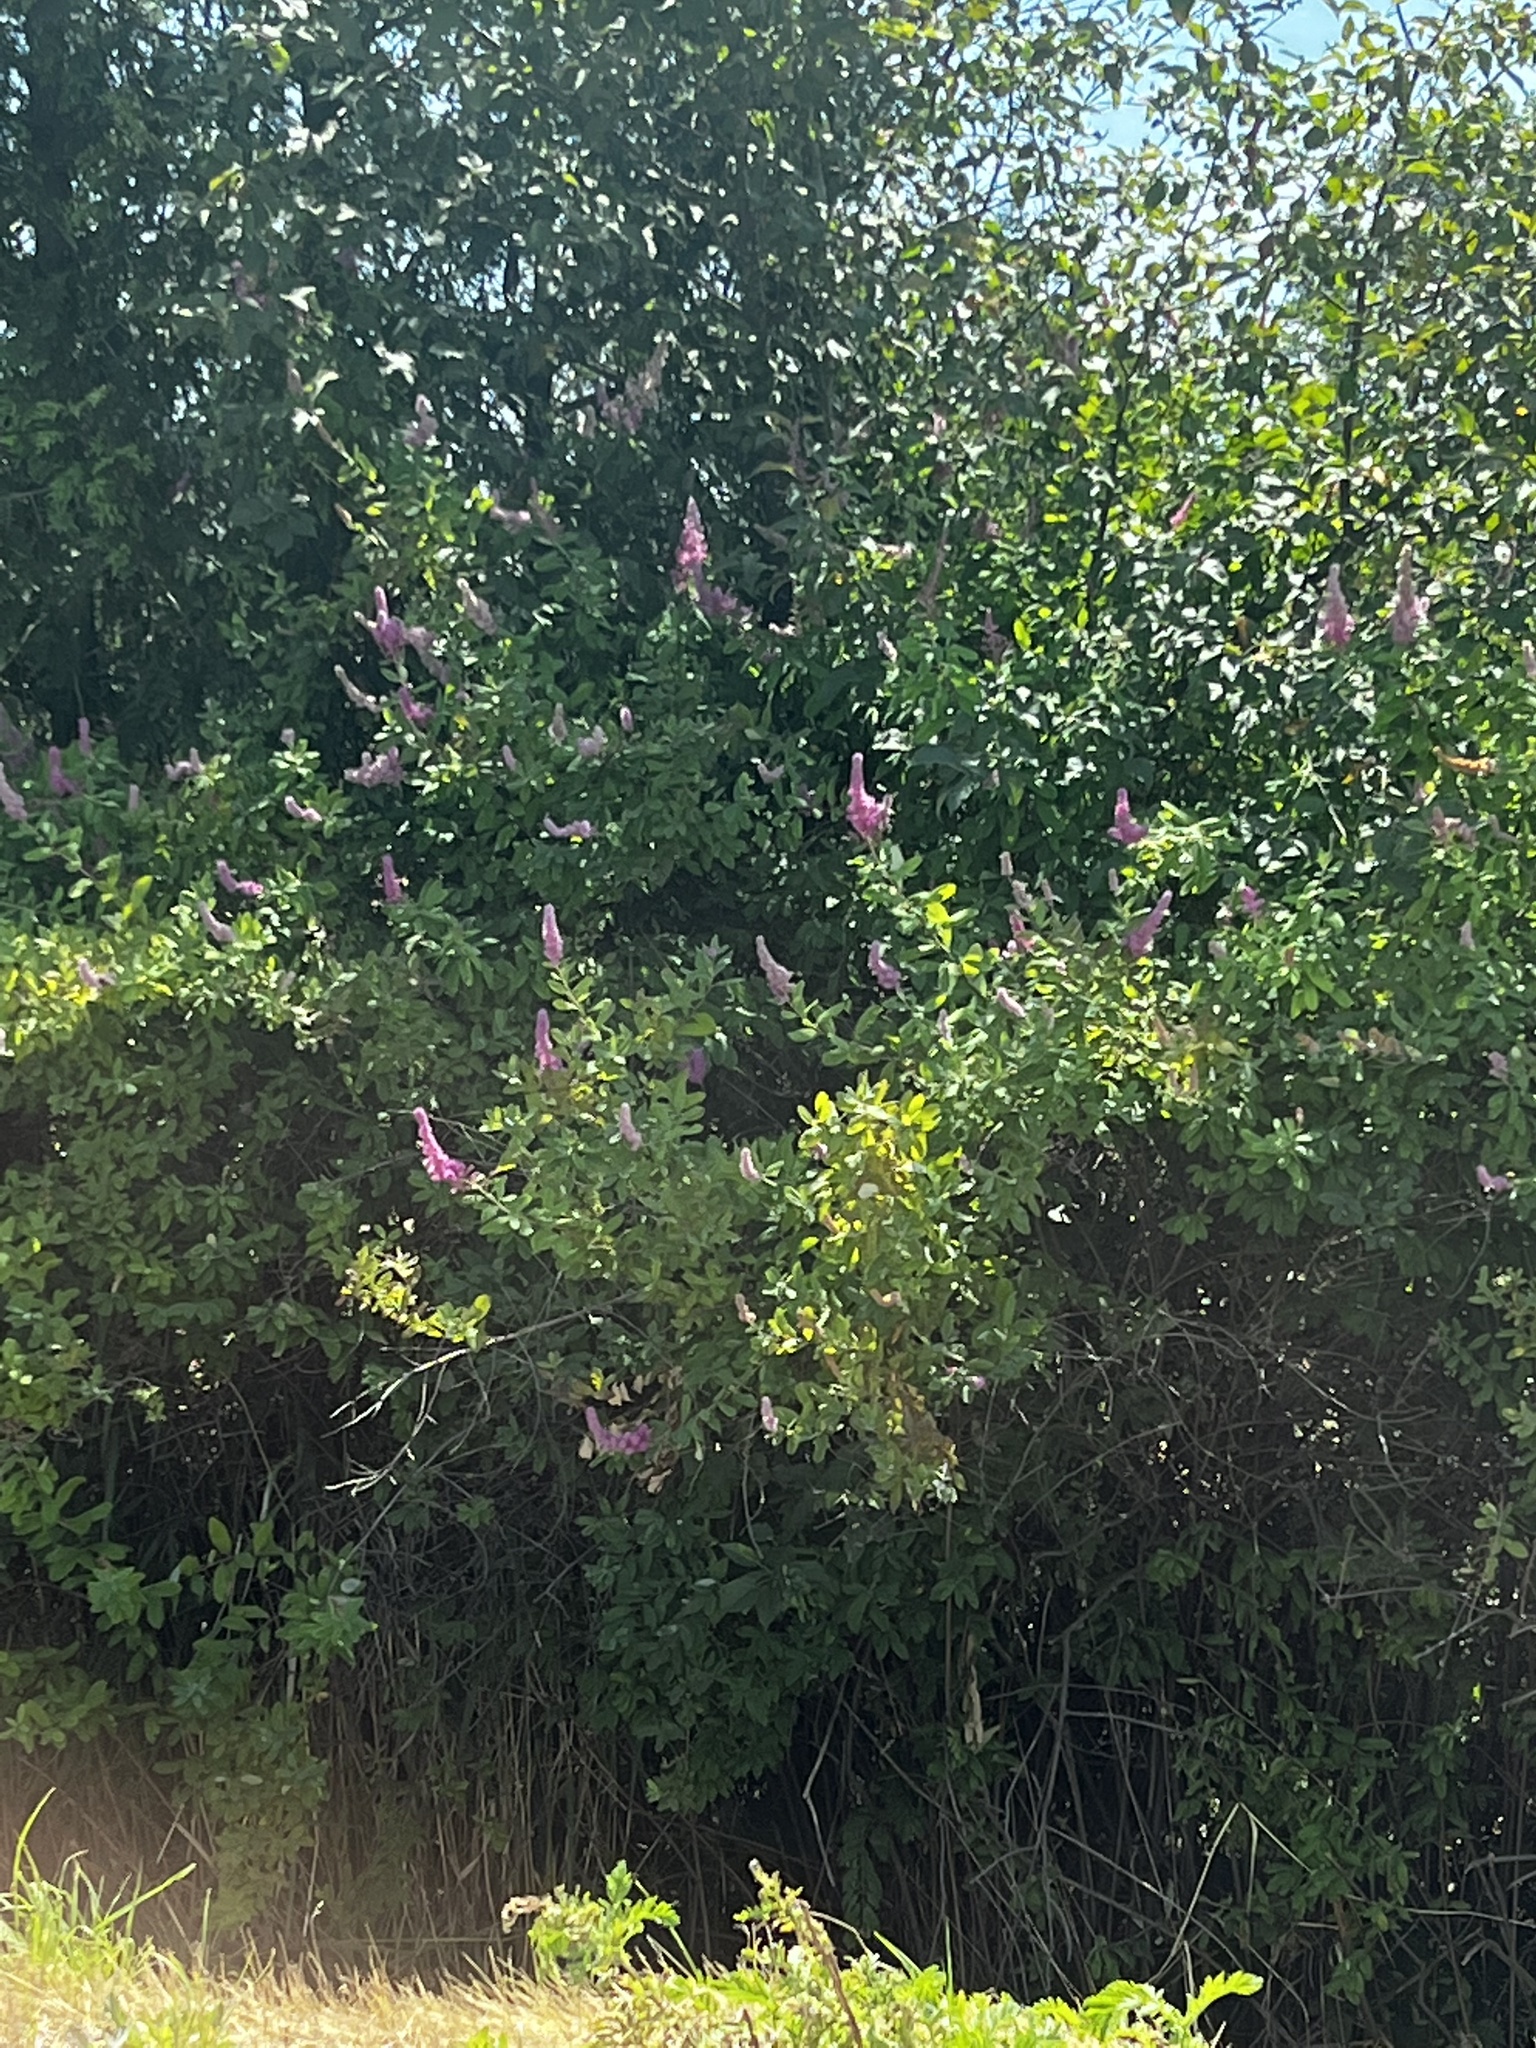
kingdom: Plantae
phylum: Tracheophyta
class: Magnoliopsida
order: Rosales
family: Rosaceae
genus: Spiraea
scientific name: Spiraea douglasii
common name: Steeplebush
